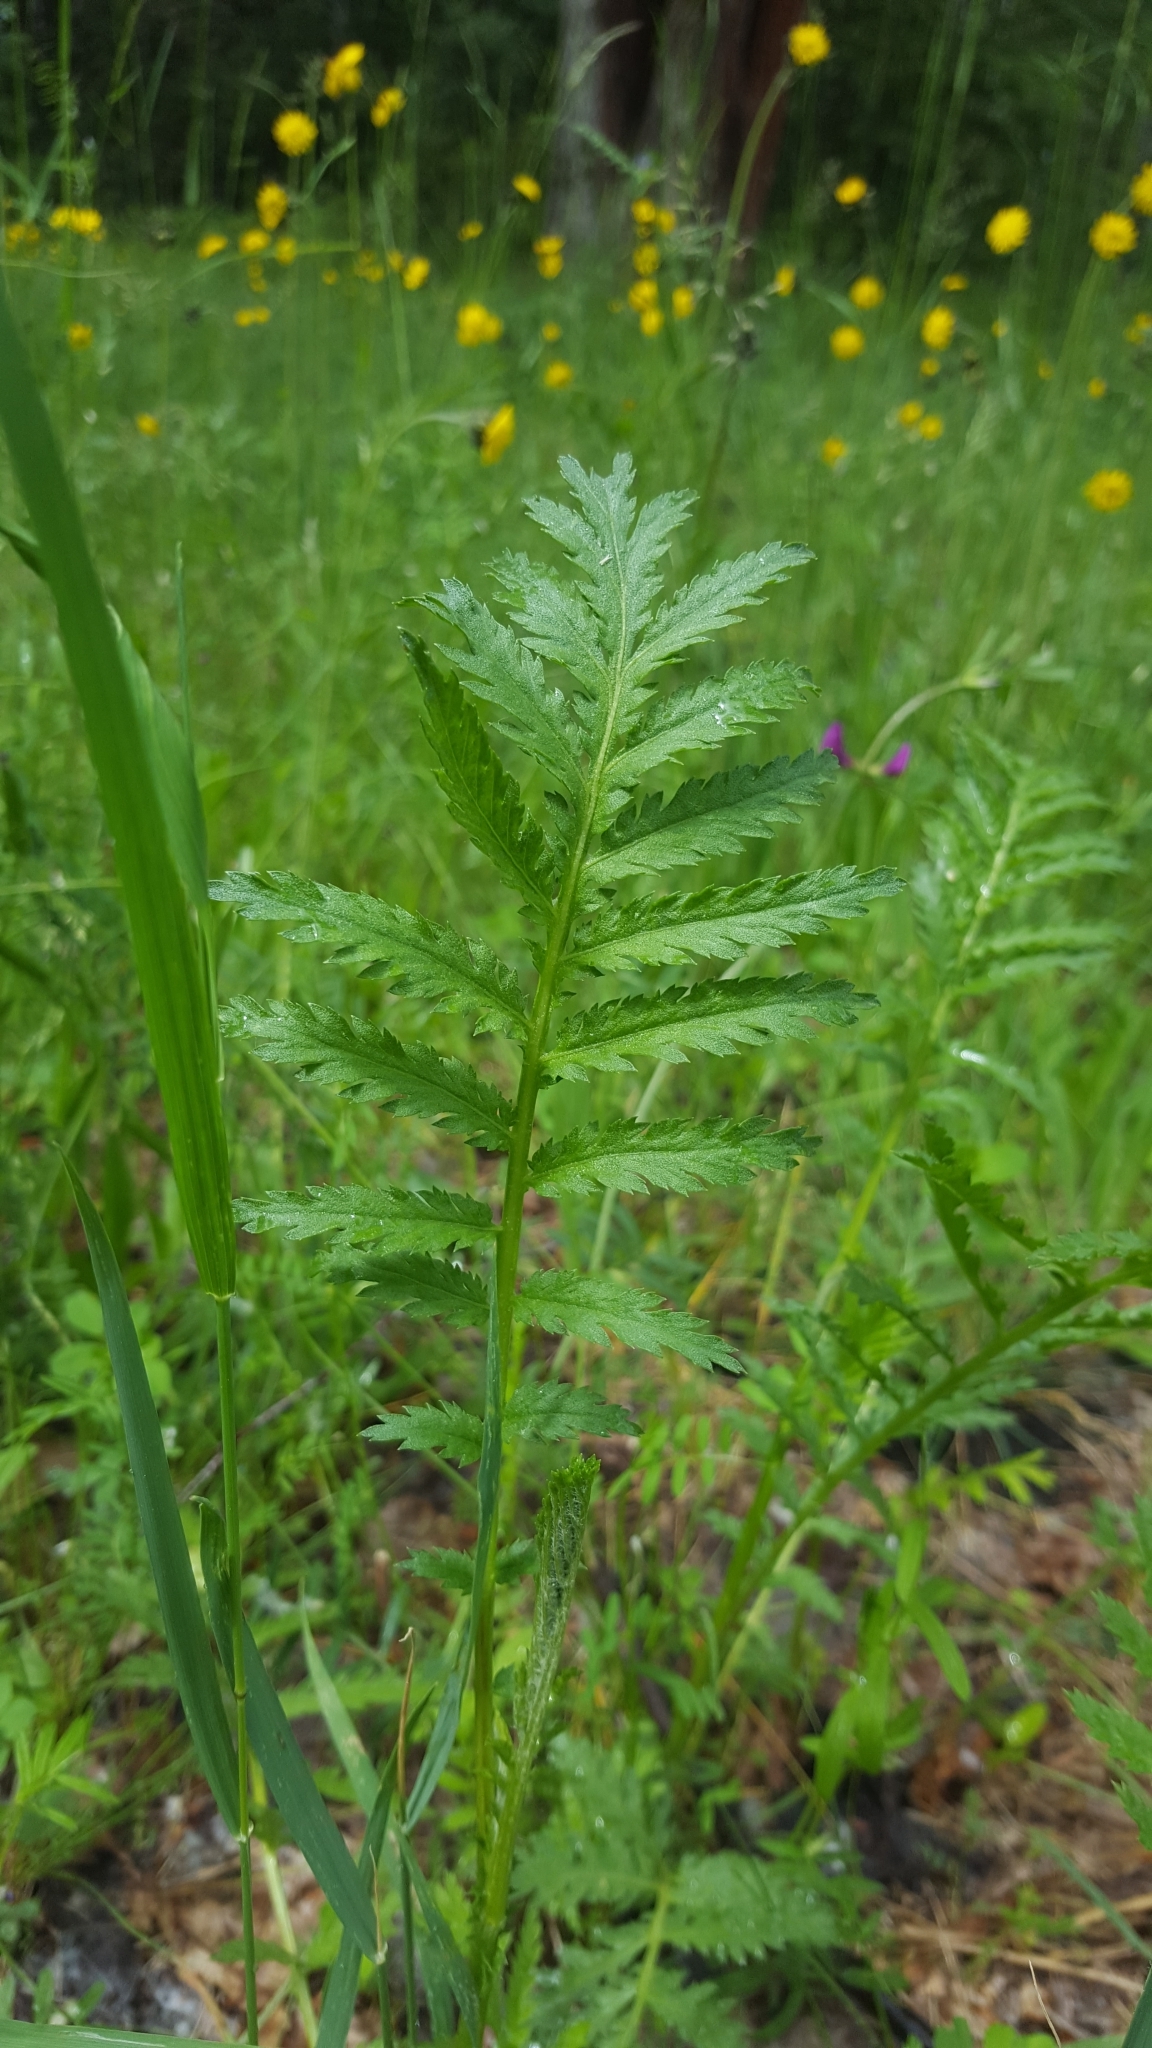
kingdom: Plantae
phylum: Tracheophyta
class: Magnoliopsida
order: Asterales
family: Asteraceae
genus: Tanacetum
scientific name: Tanacetum vulgare
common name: Common tansy
